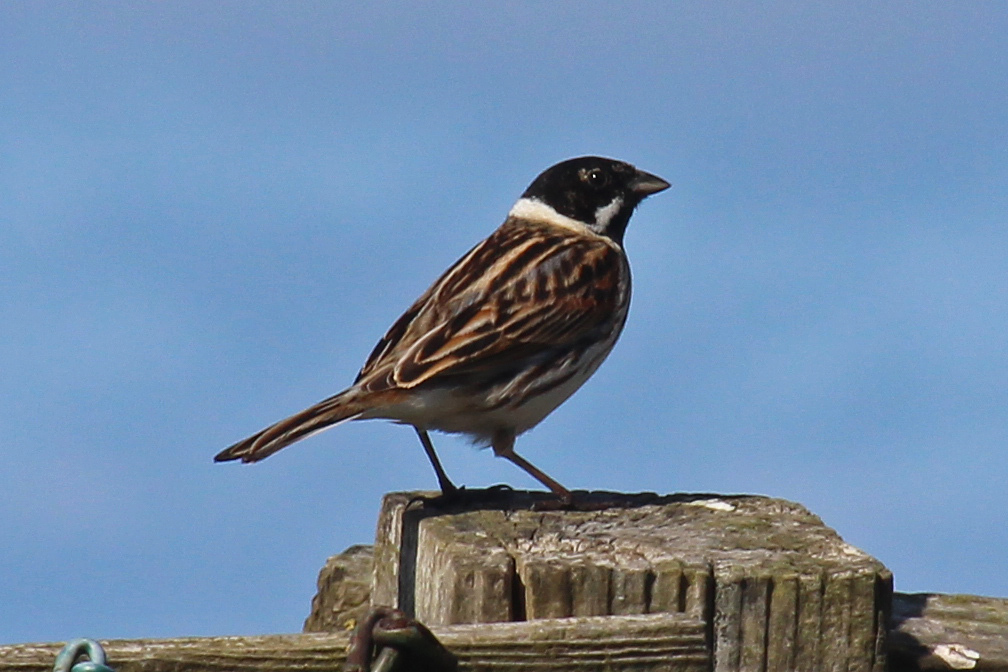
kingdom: Animalia
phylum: Chordata
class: Aves
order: Passeriformes
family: Emberizidae
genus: Emberiza
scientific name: Emberiza schoeniclus
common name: Reed bunting
